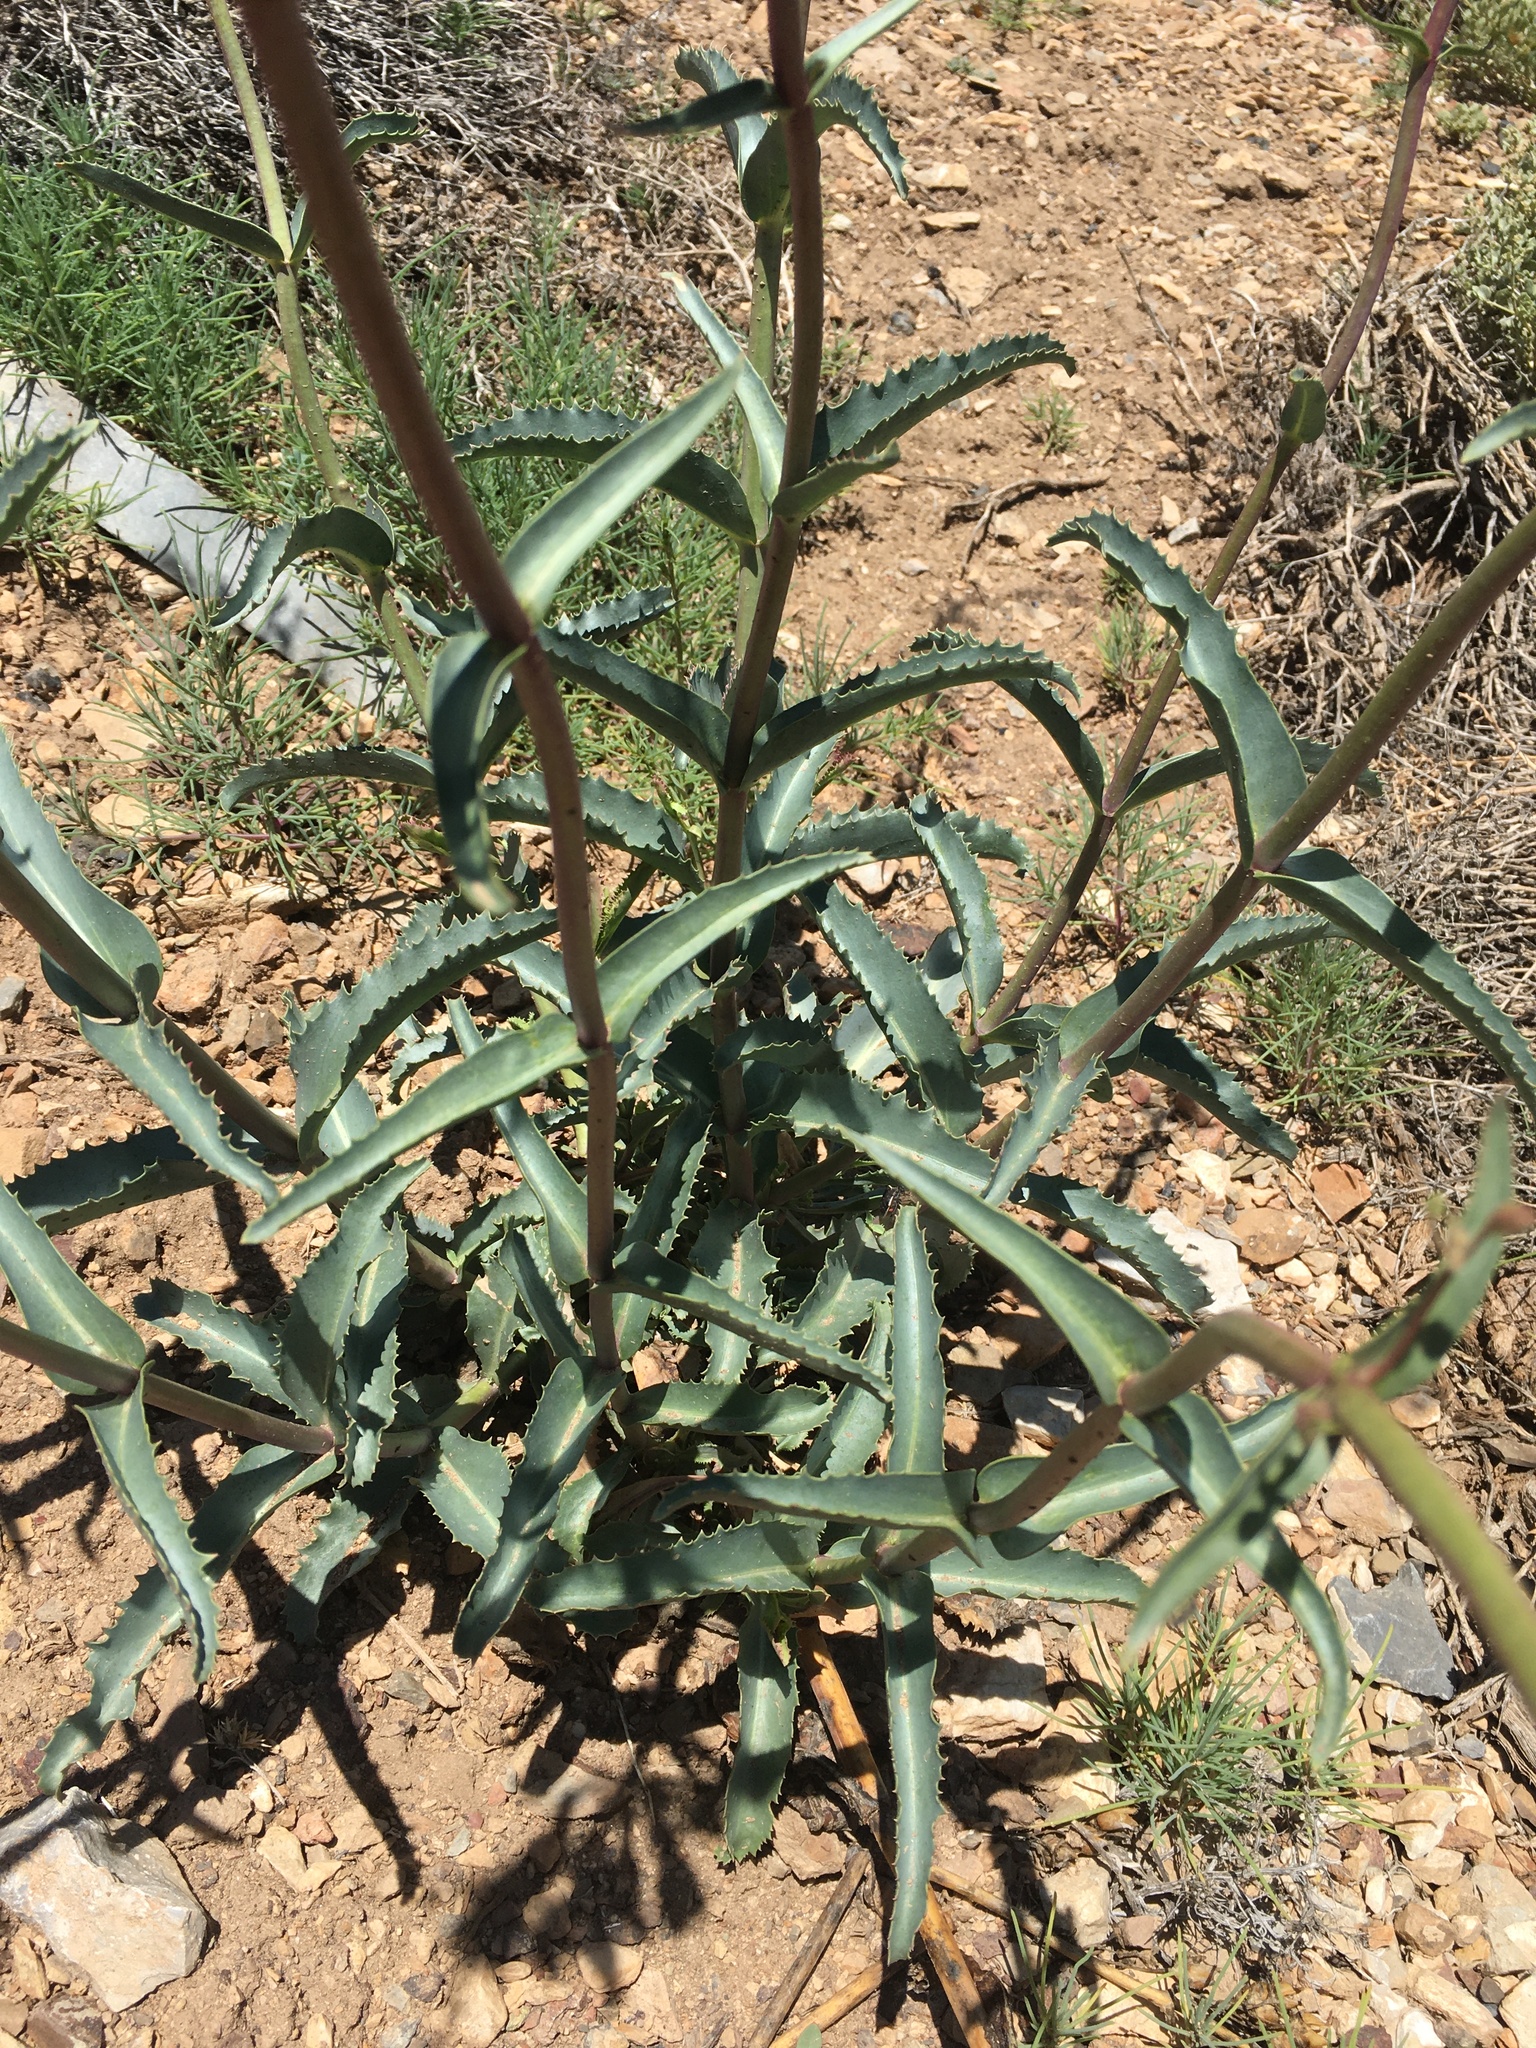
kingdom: Plantae
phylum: Tracheophyta
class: Magnoliopsida
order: Lamiales
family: Plantaginaceae
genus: Penstemon
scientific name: Penstemon floridus
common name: Panamint penstemon
